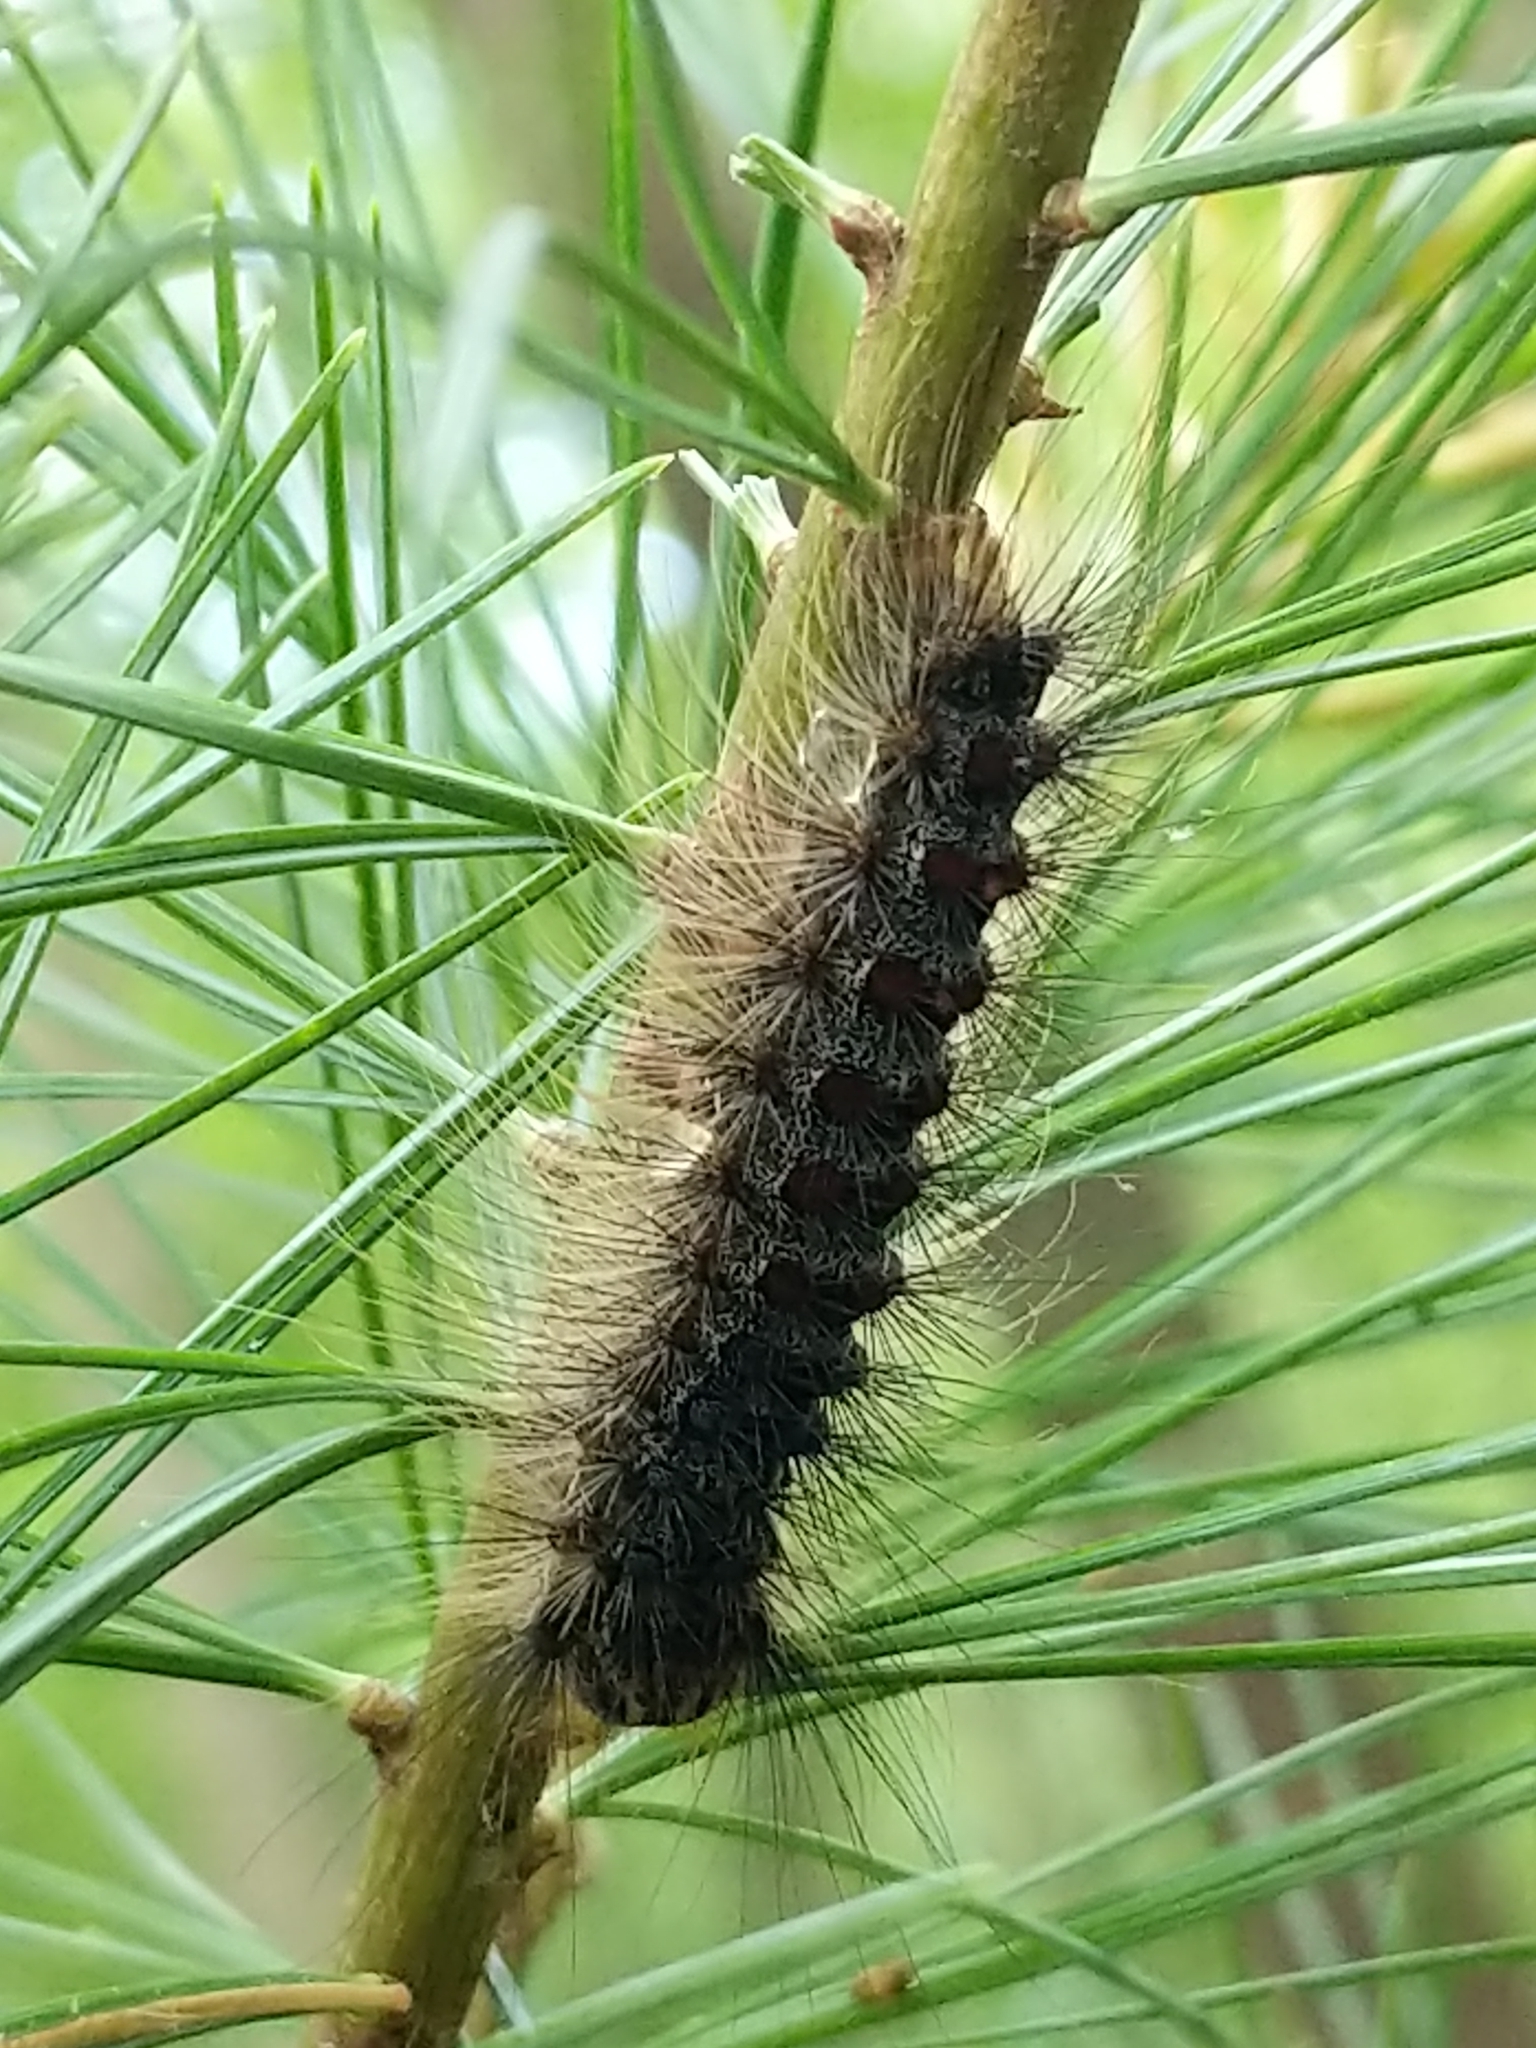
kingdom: Animalia
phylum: Arthropoda
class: Insecta
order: Lepidoptera
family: Erebidae
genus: Lymantria
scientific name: Lymantria dispar
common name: Gypsy moth
